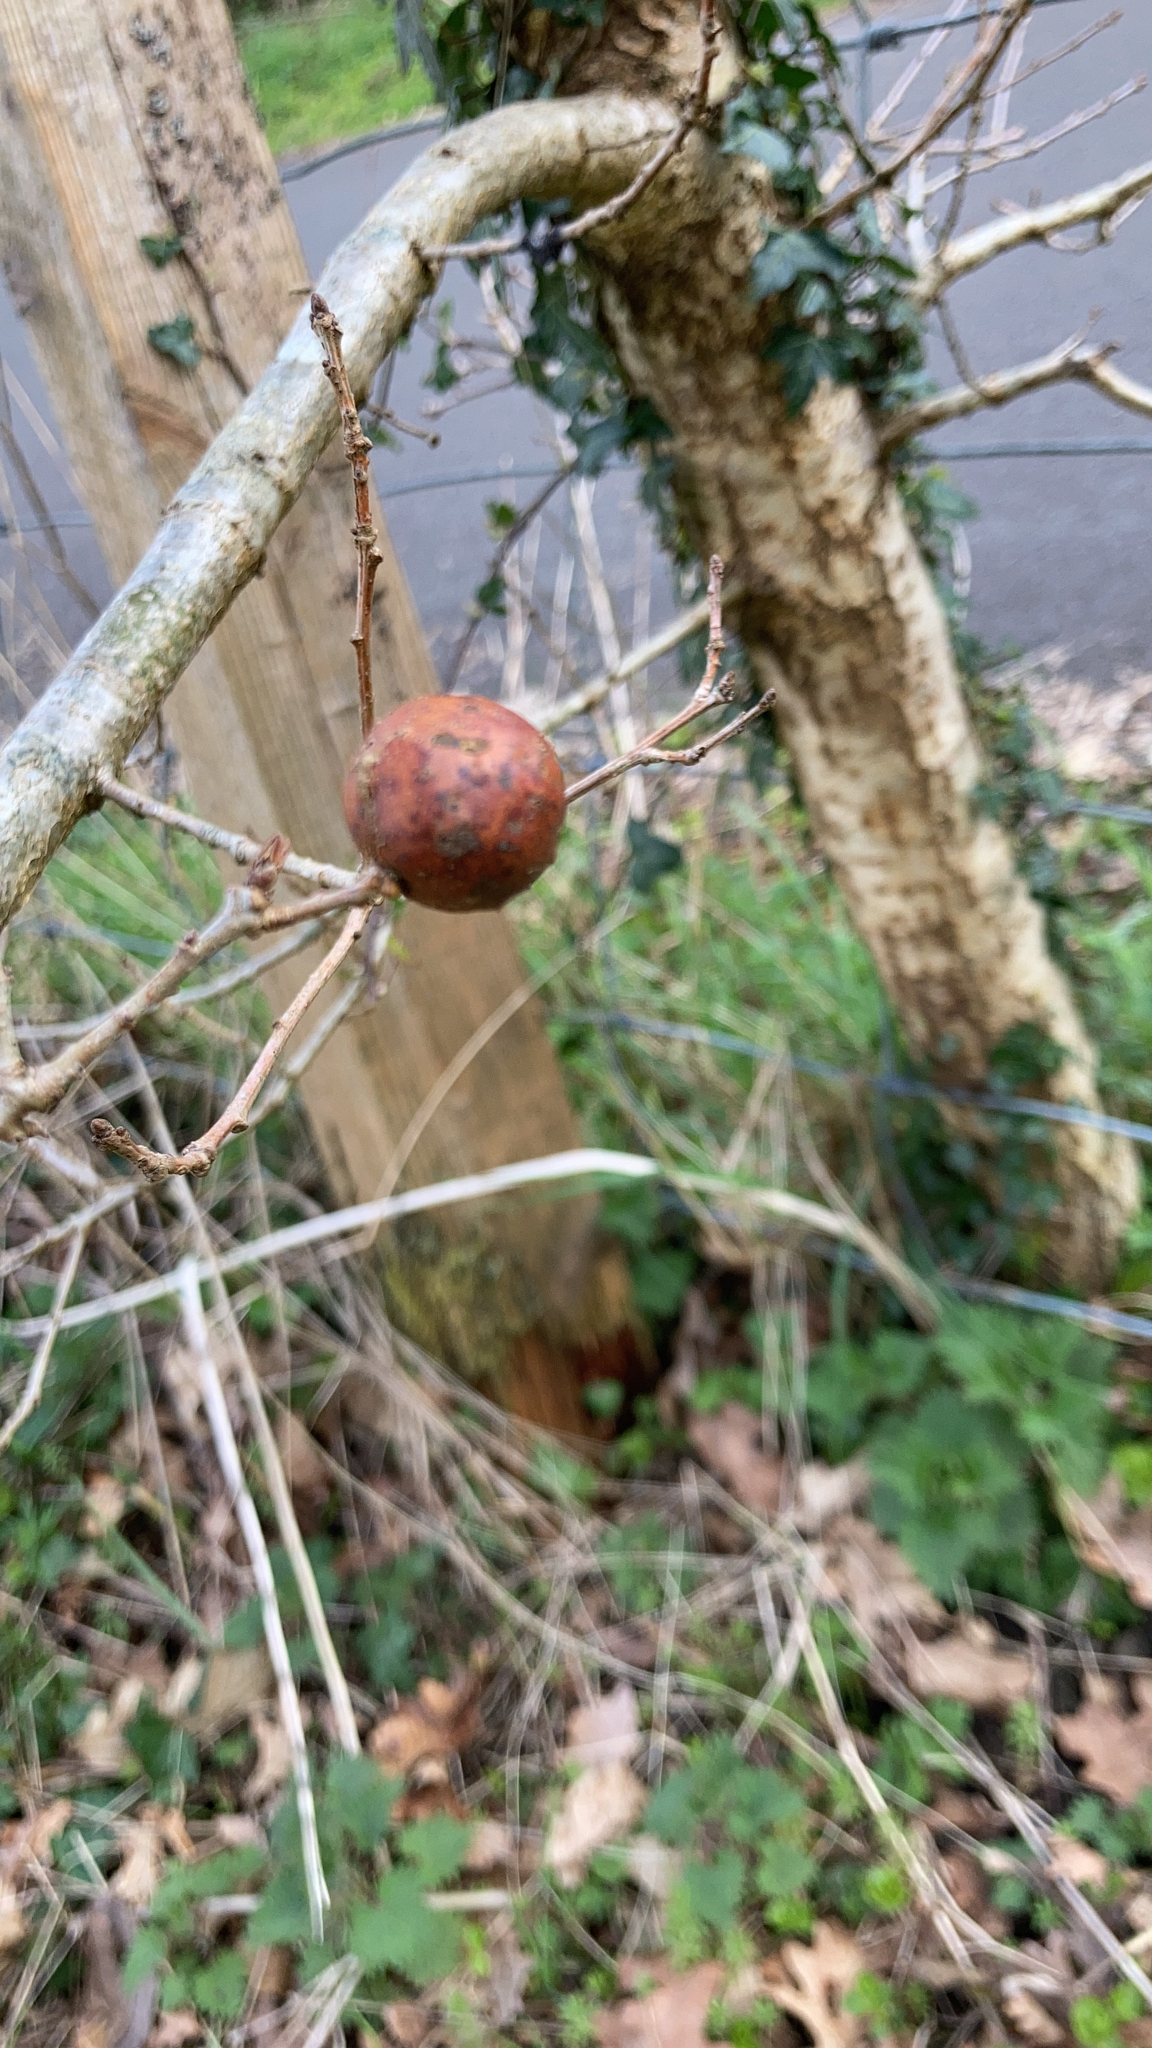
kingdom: Animalia
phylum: Arthropoda
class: Insecta
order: Hymenoptera
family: Cynipidae
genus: Andricus
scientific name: Andricus kollari
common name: Marble gall
